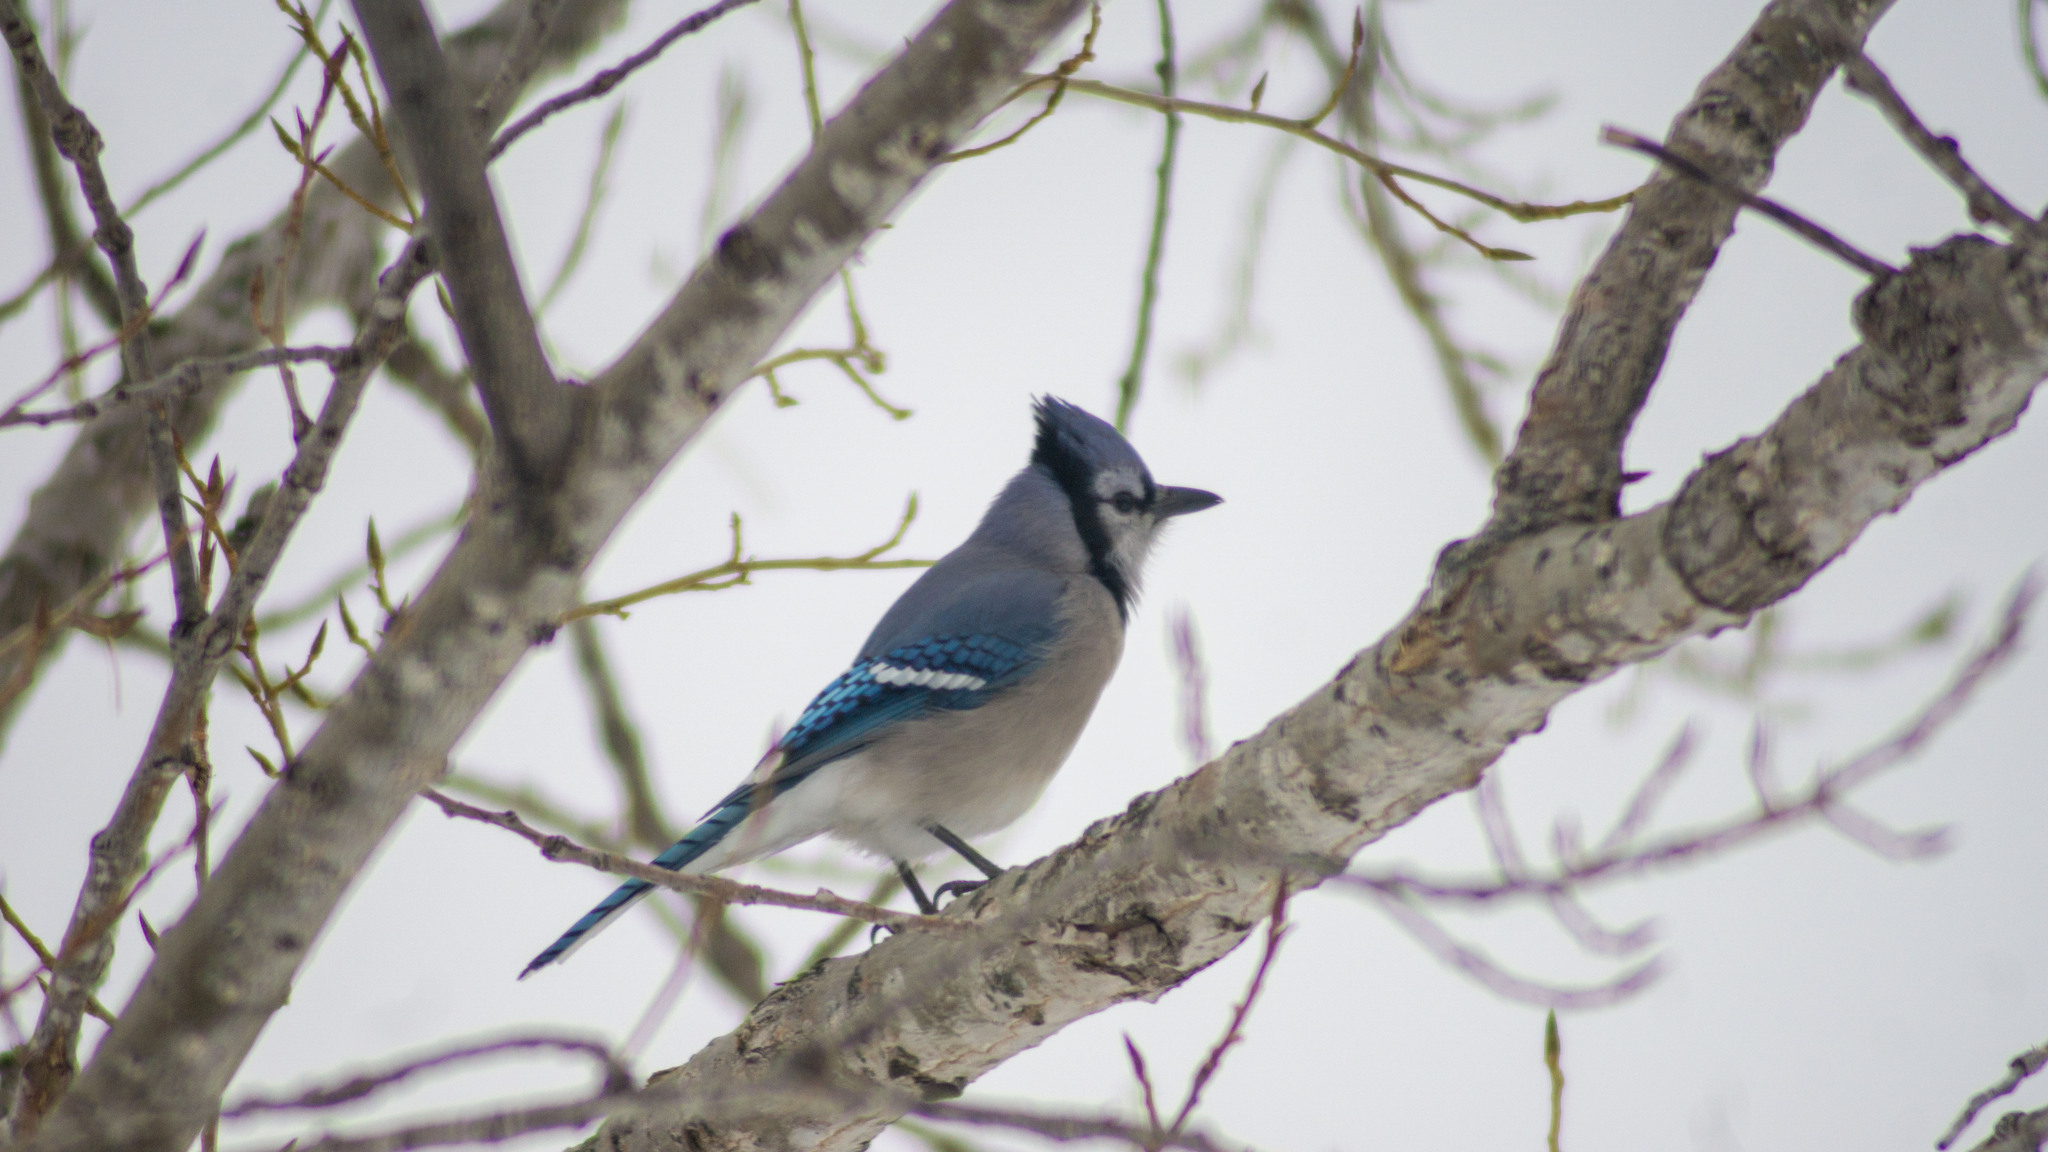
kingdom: Animalia
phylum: Chordata
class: Aves
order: Passeriformes
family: Corvidae
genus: Cyanocitta
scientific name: Cyanocitta cristata
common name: Blue jay
